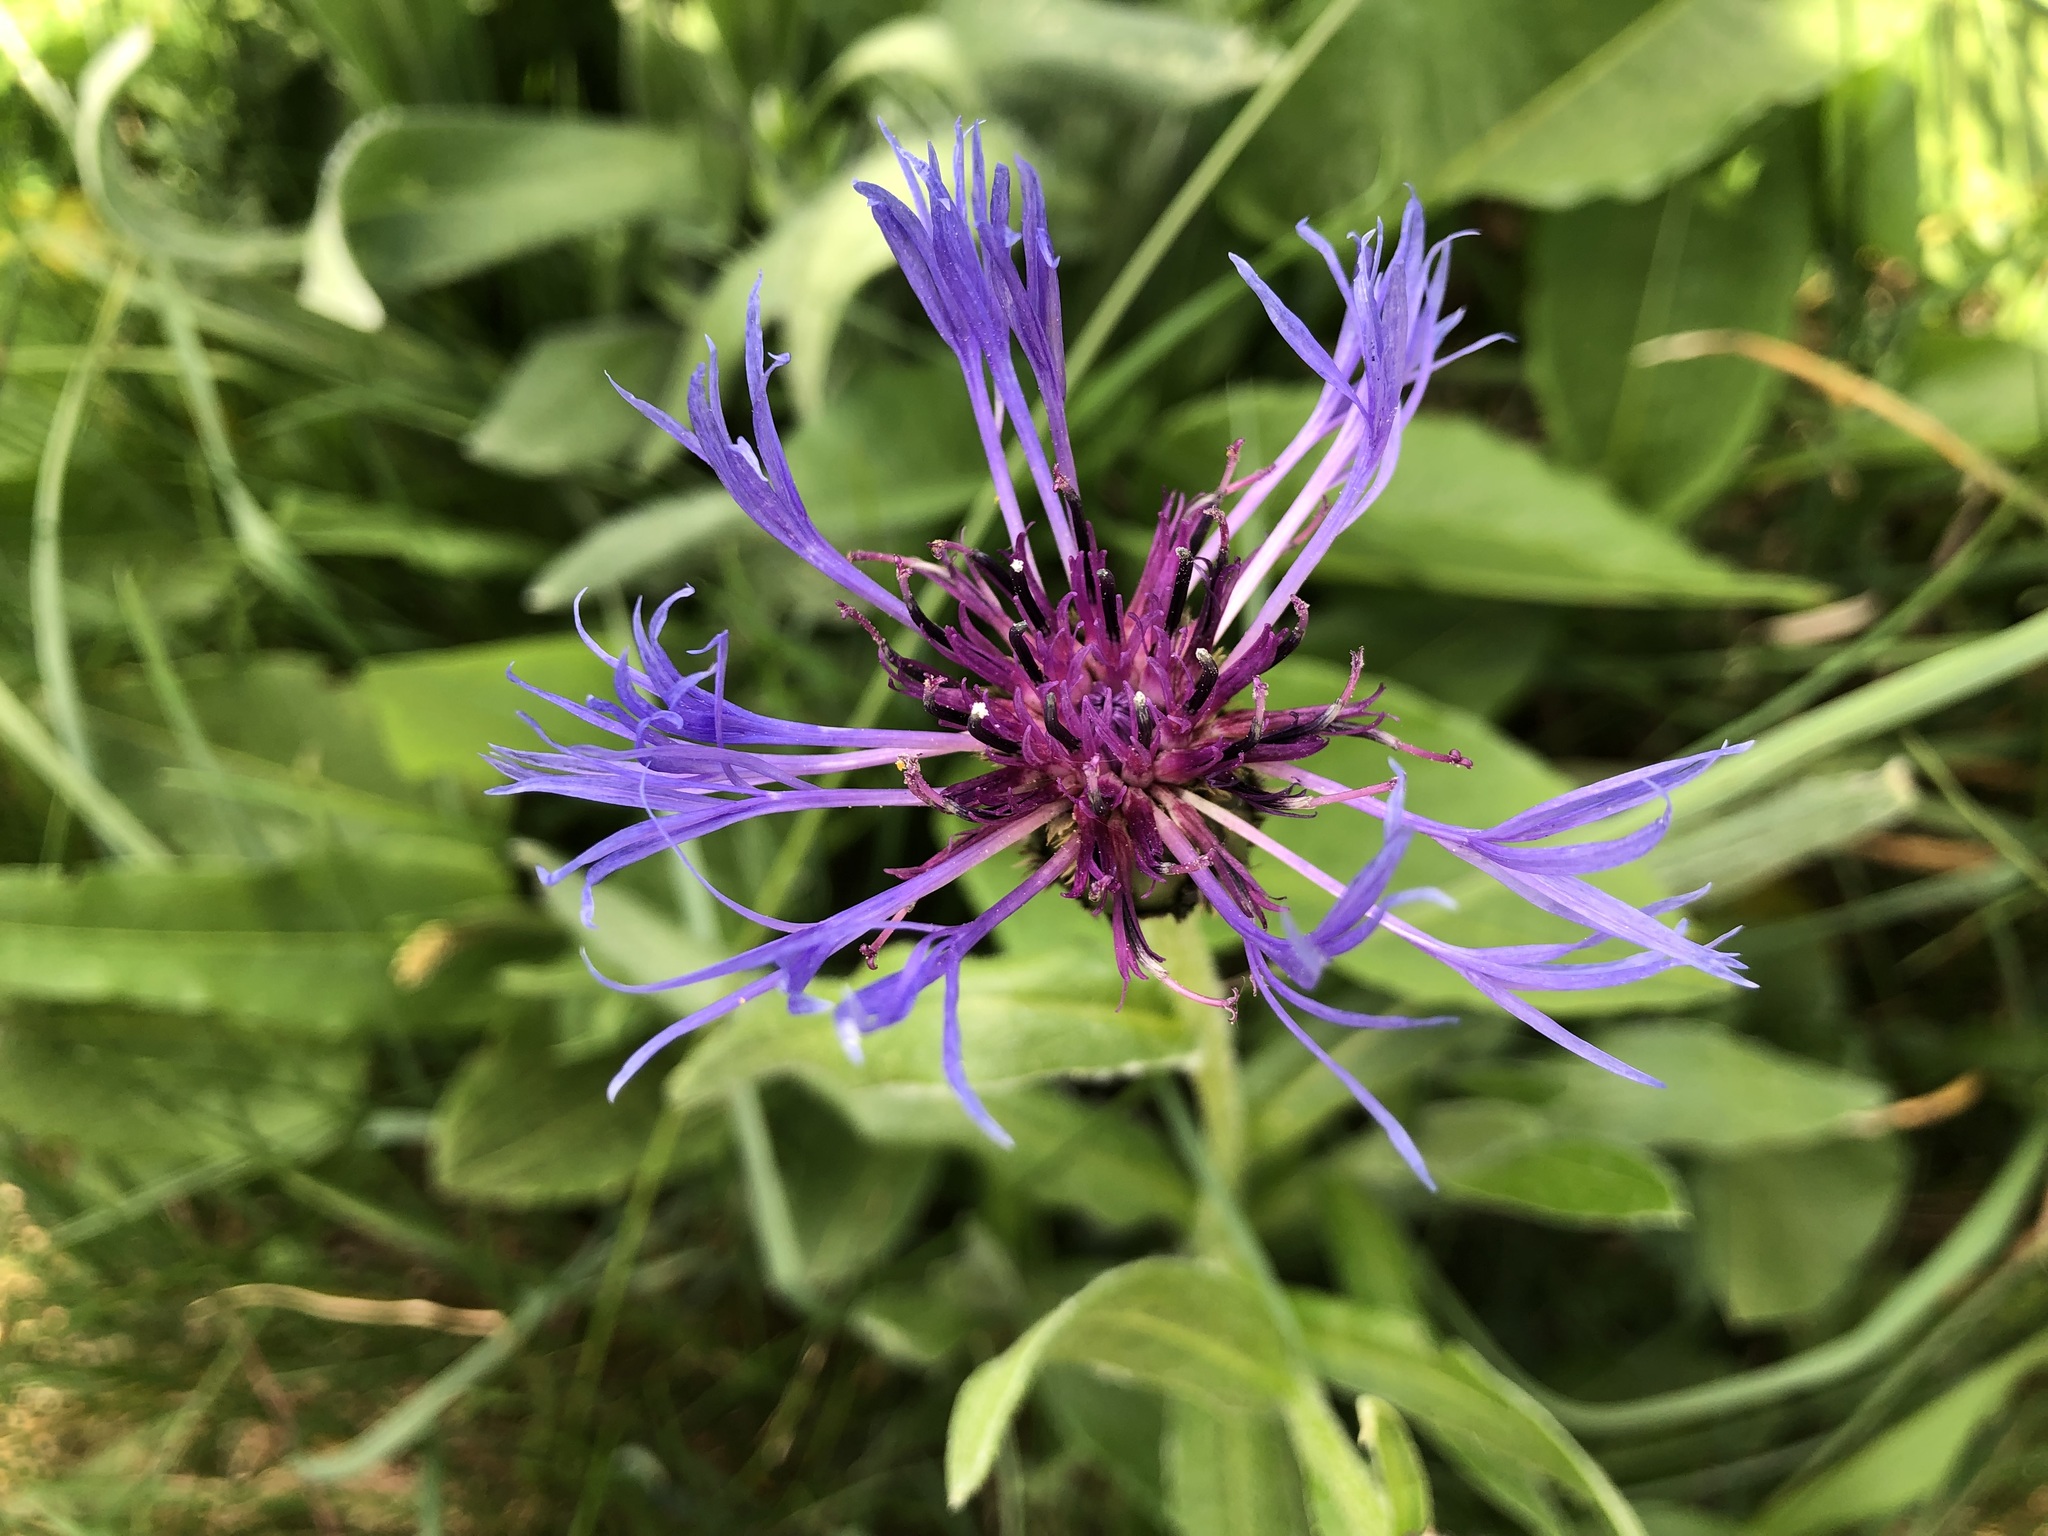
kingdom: Plantae
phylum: Tracheophyta
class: Magnoliopsida
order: Asterales
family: Asteraceae
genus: Centaurea
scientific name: Centaurea montana
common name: Perennial cornflower
